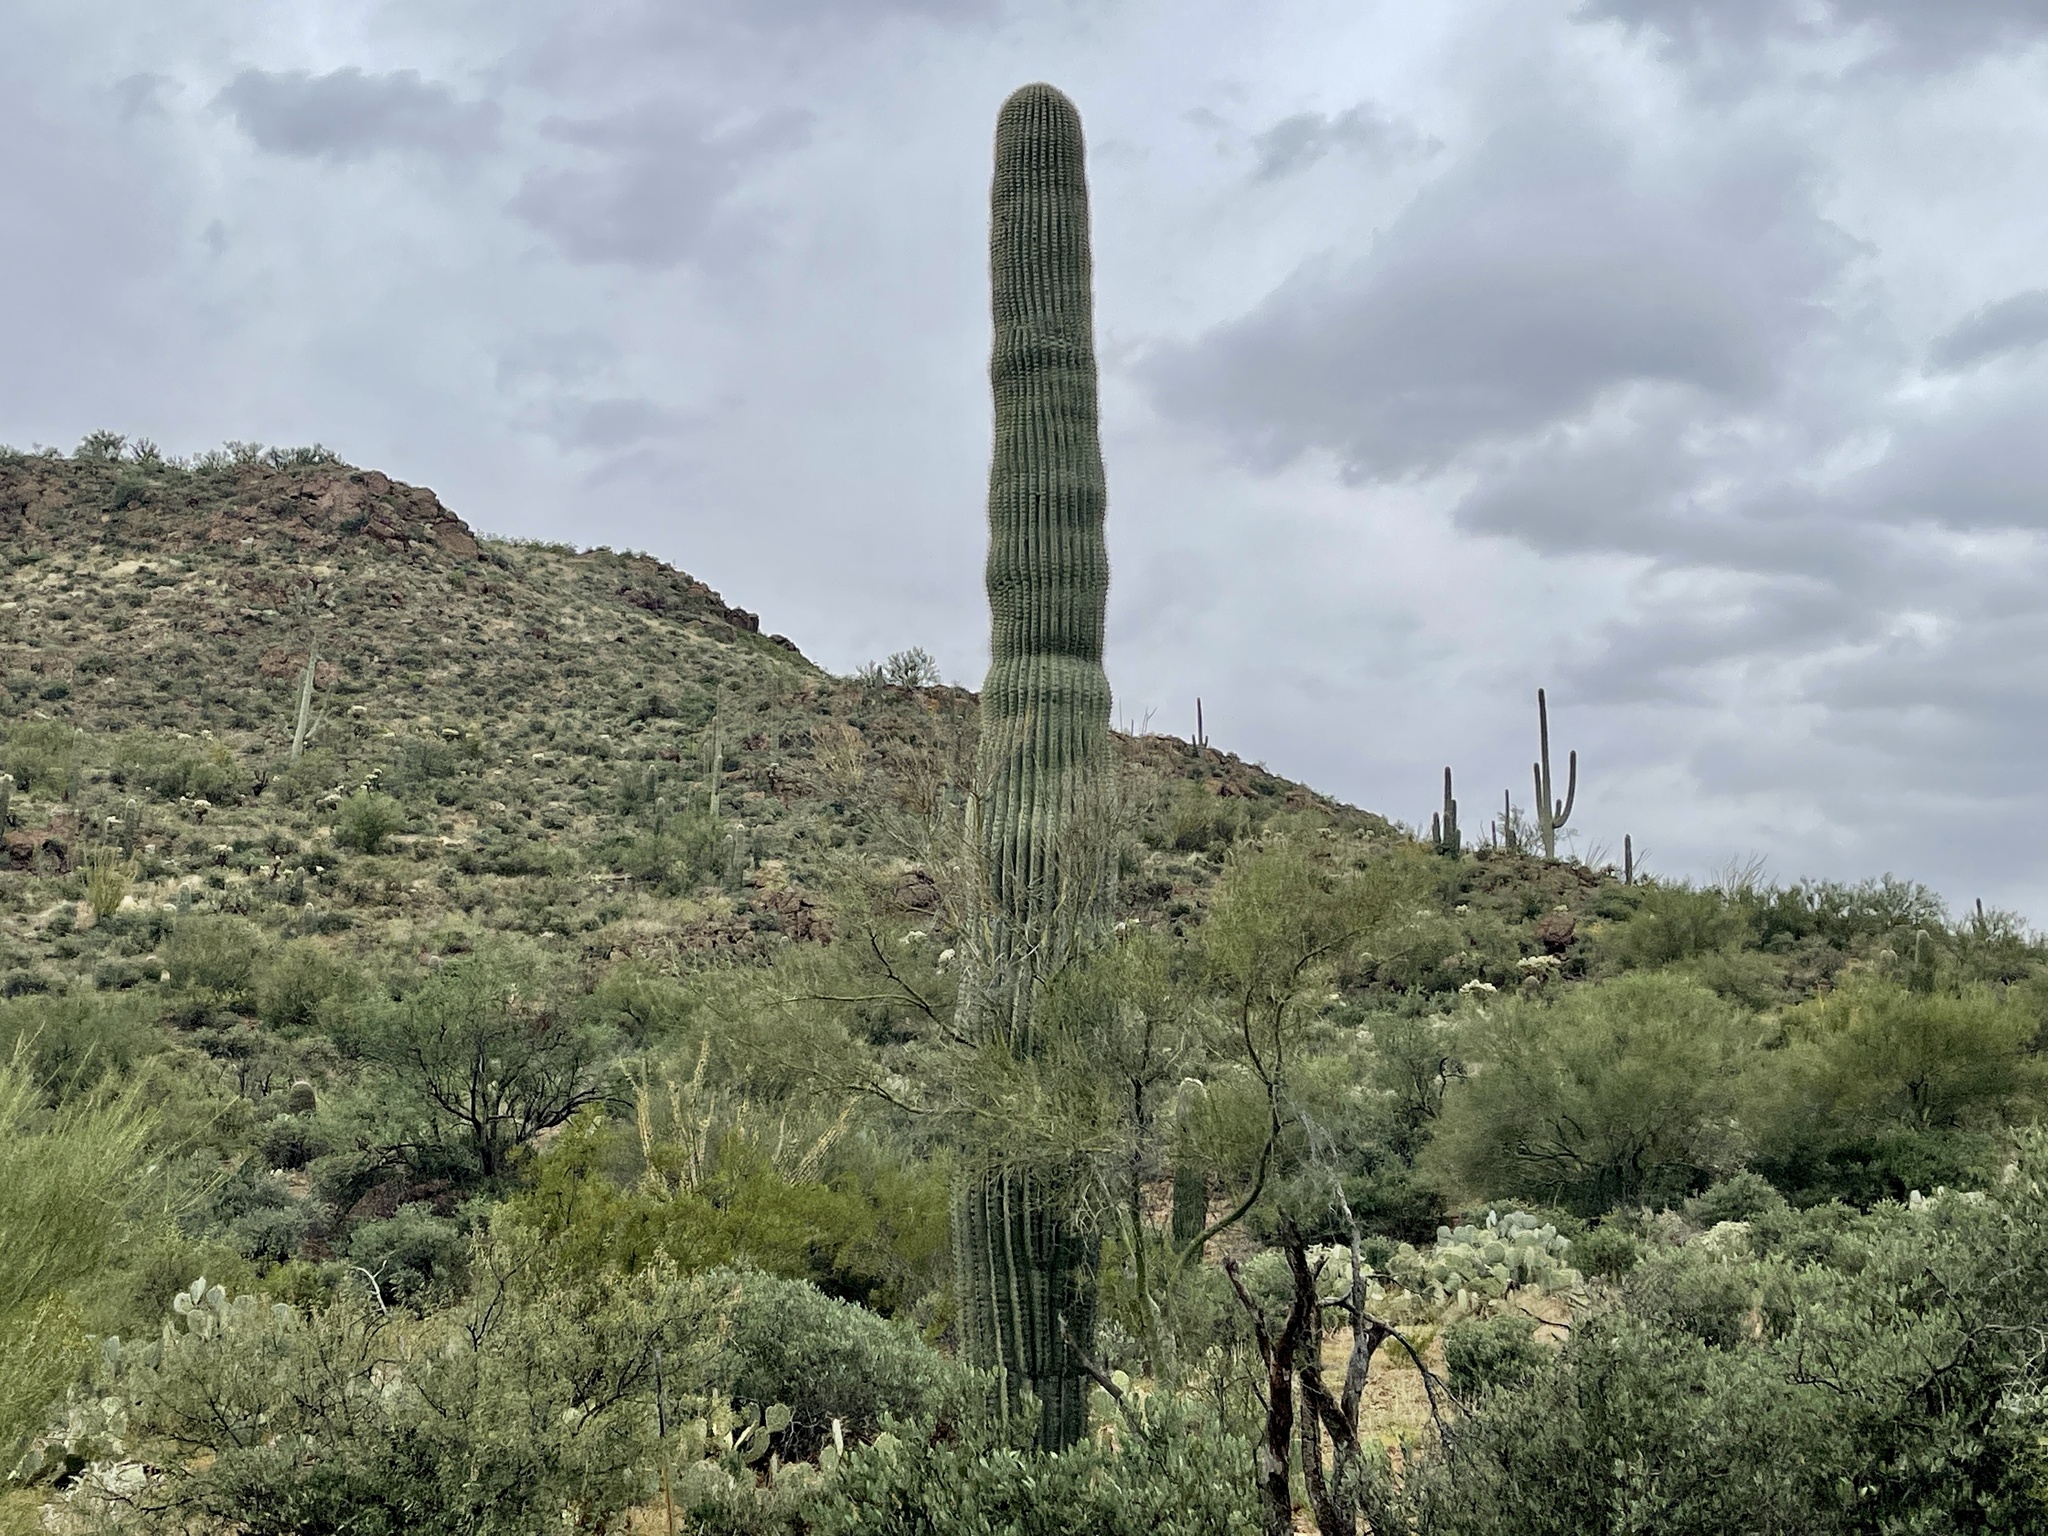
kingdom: Plantae
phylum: Tracheophyta
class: Magnoliopsida
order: Caryophyllales
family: Cactaceae
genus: Carnegiea
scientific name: Carnegiea gigantea
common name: Saguaro
